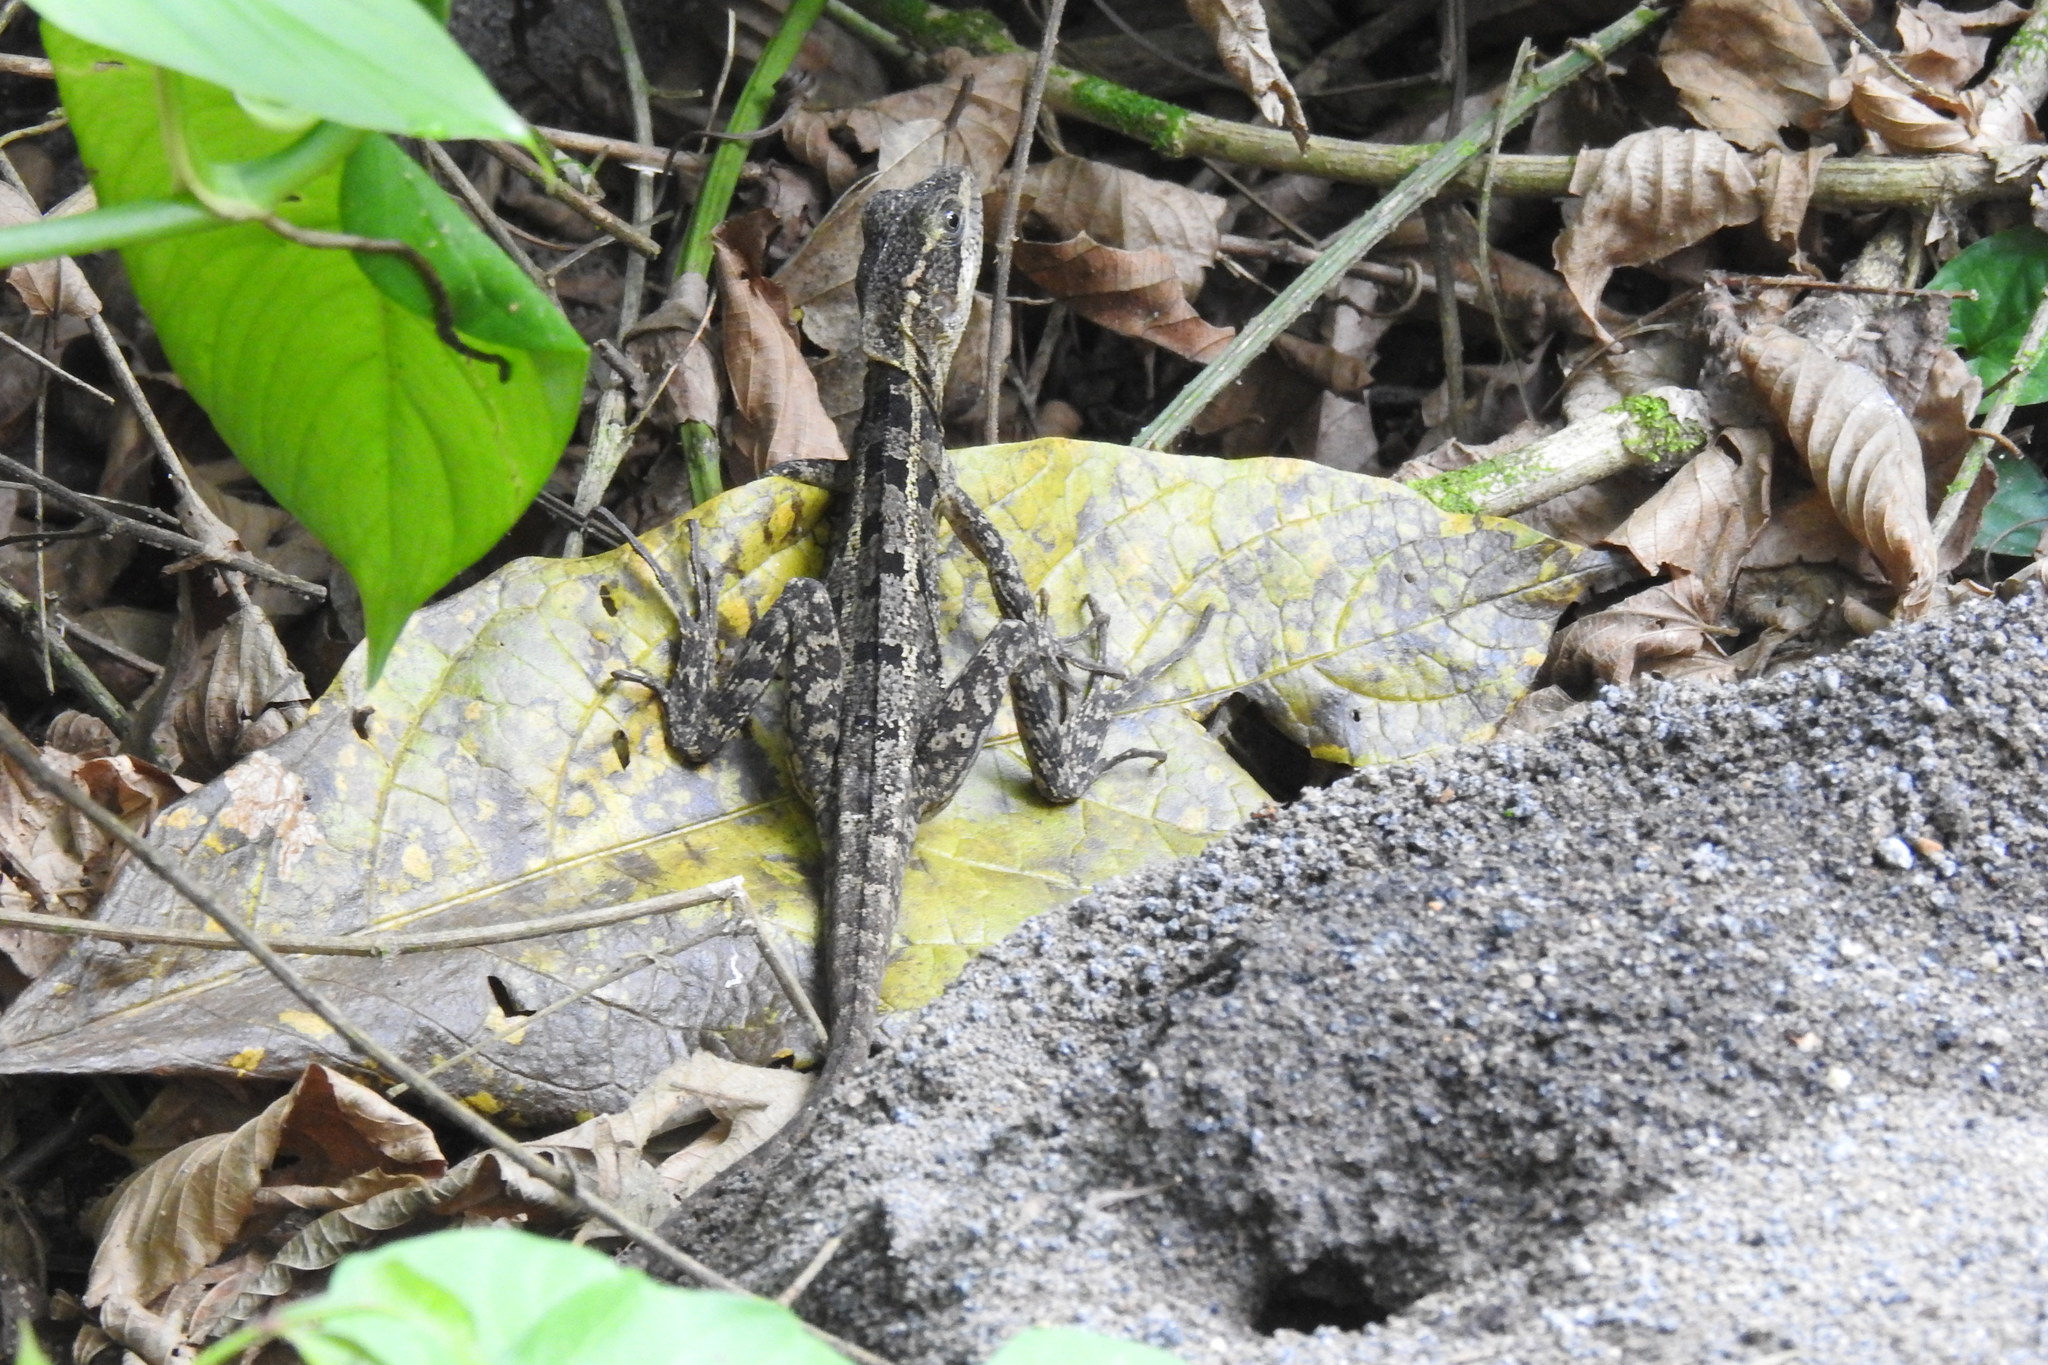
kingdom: Animalia
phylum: Chordata
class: Squamata
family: Corytophanidae
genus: Basiliscus
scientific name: Basiliscus vittatus
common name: Brown basilisk
